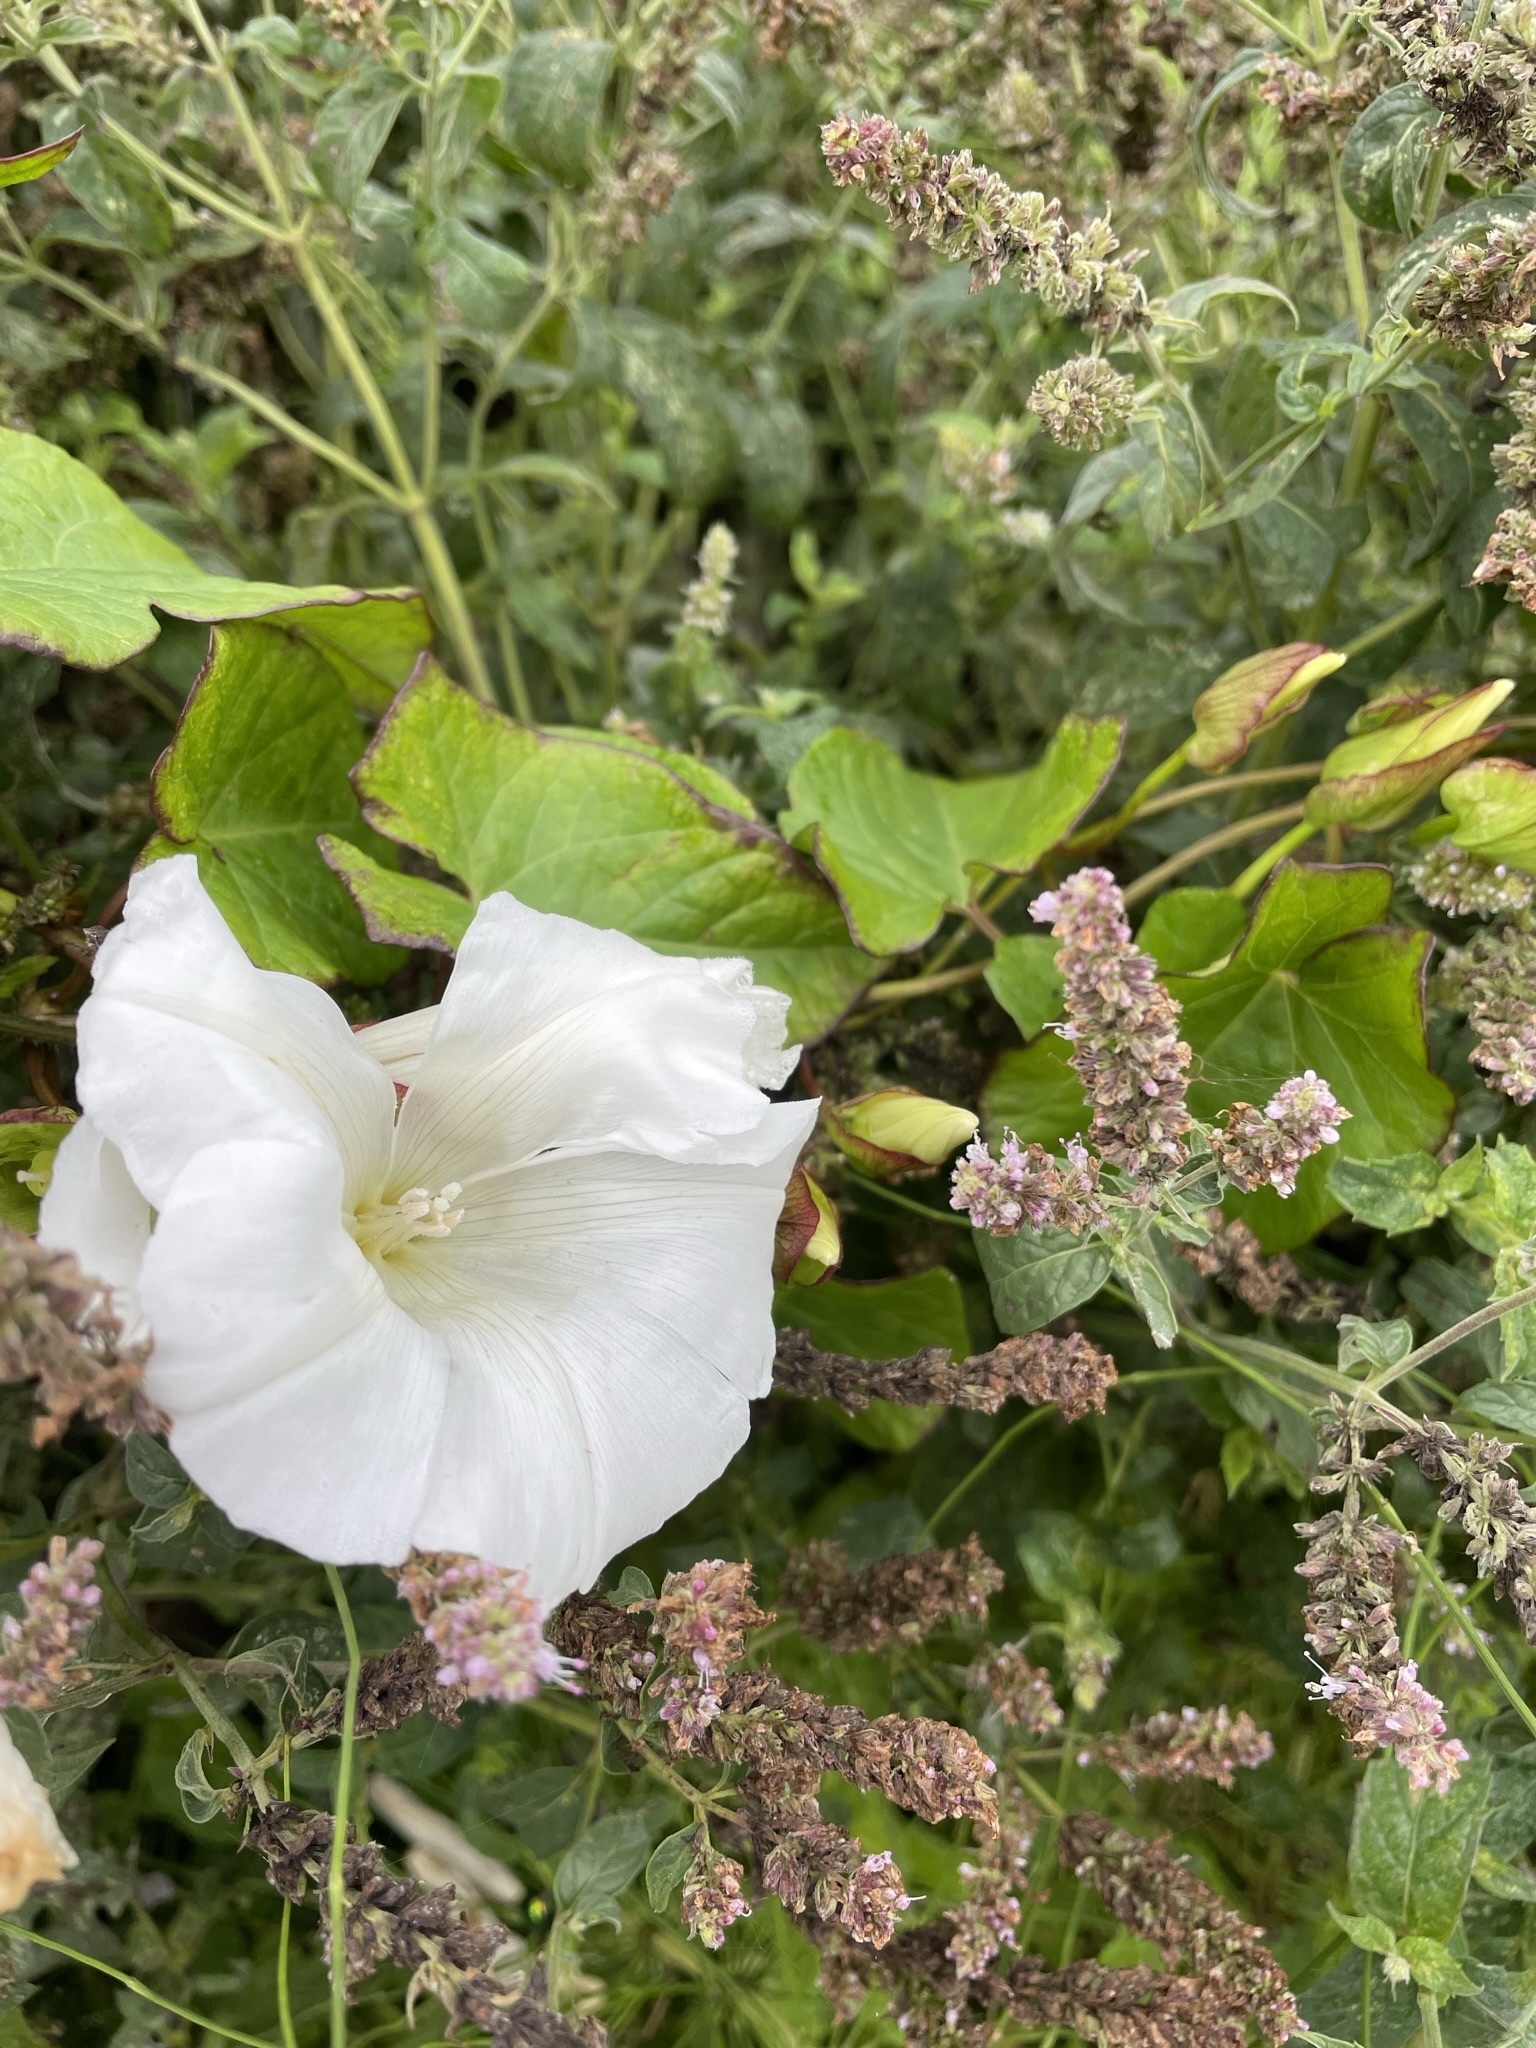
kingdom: Plantae
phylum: Tracheophyta
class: Magnoliopsida
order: Solanales
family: Convolvulaceae
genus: Calystegia
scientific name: Calystegia sepium
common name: Hedge bindweed
